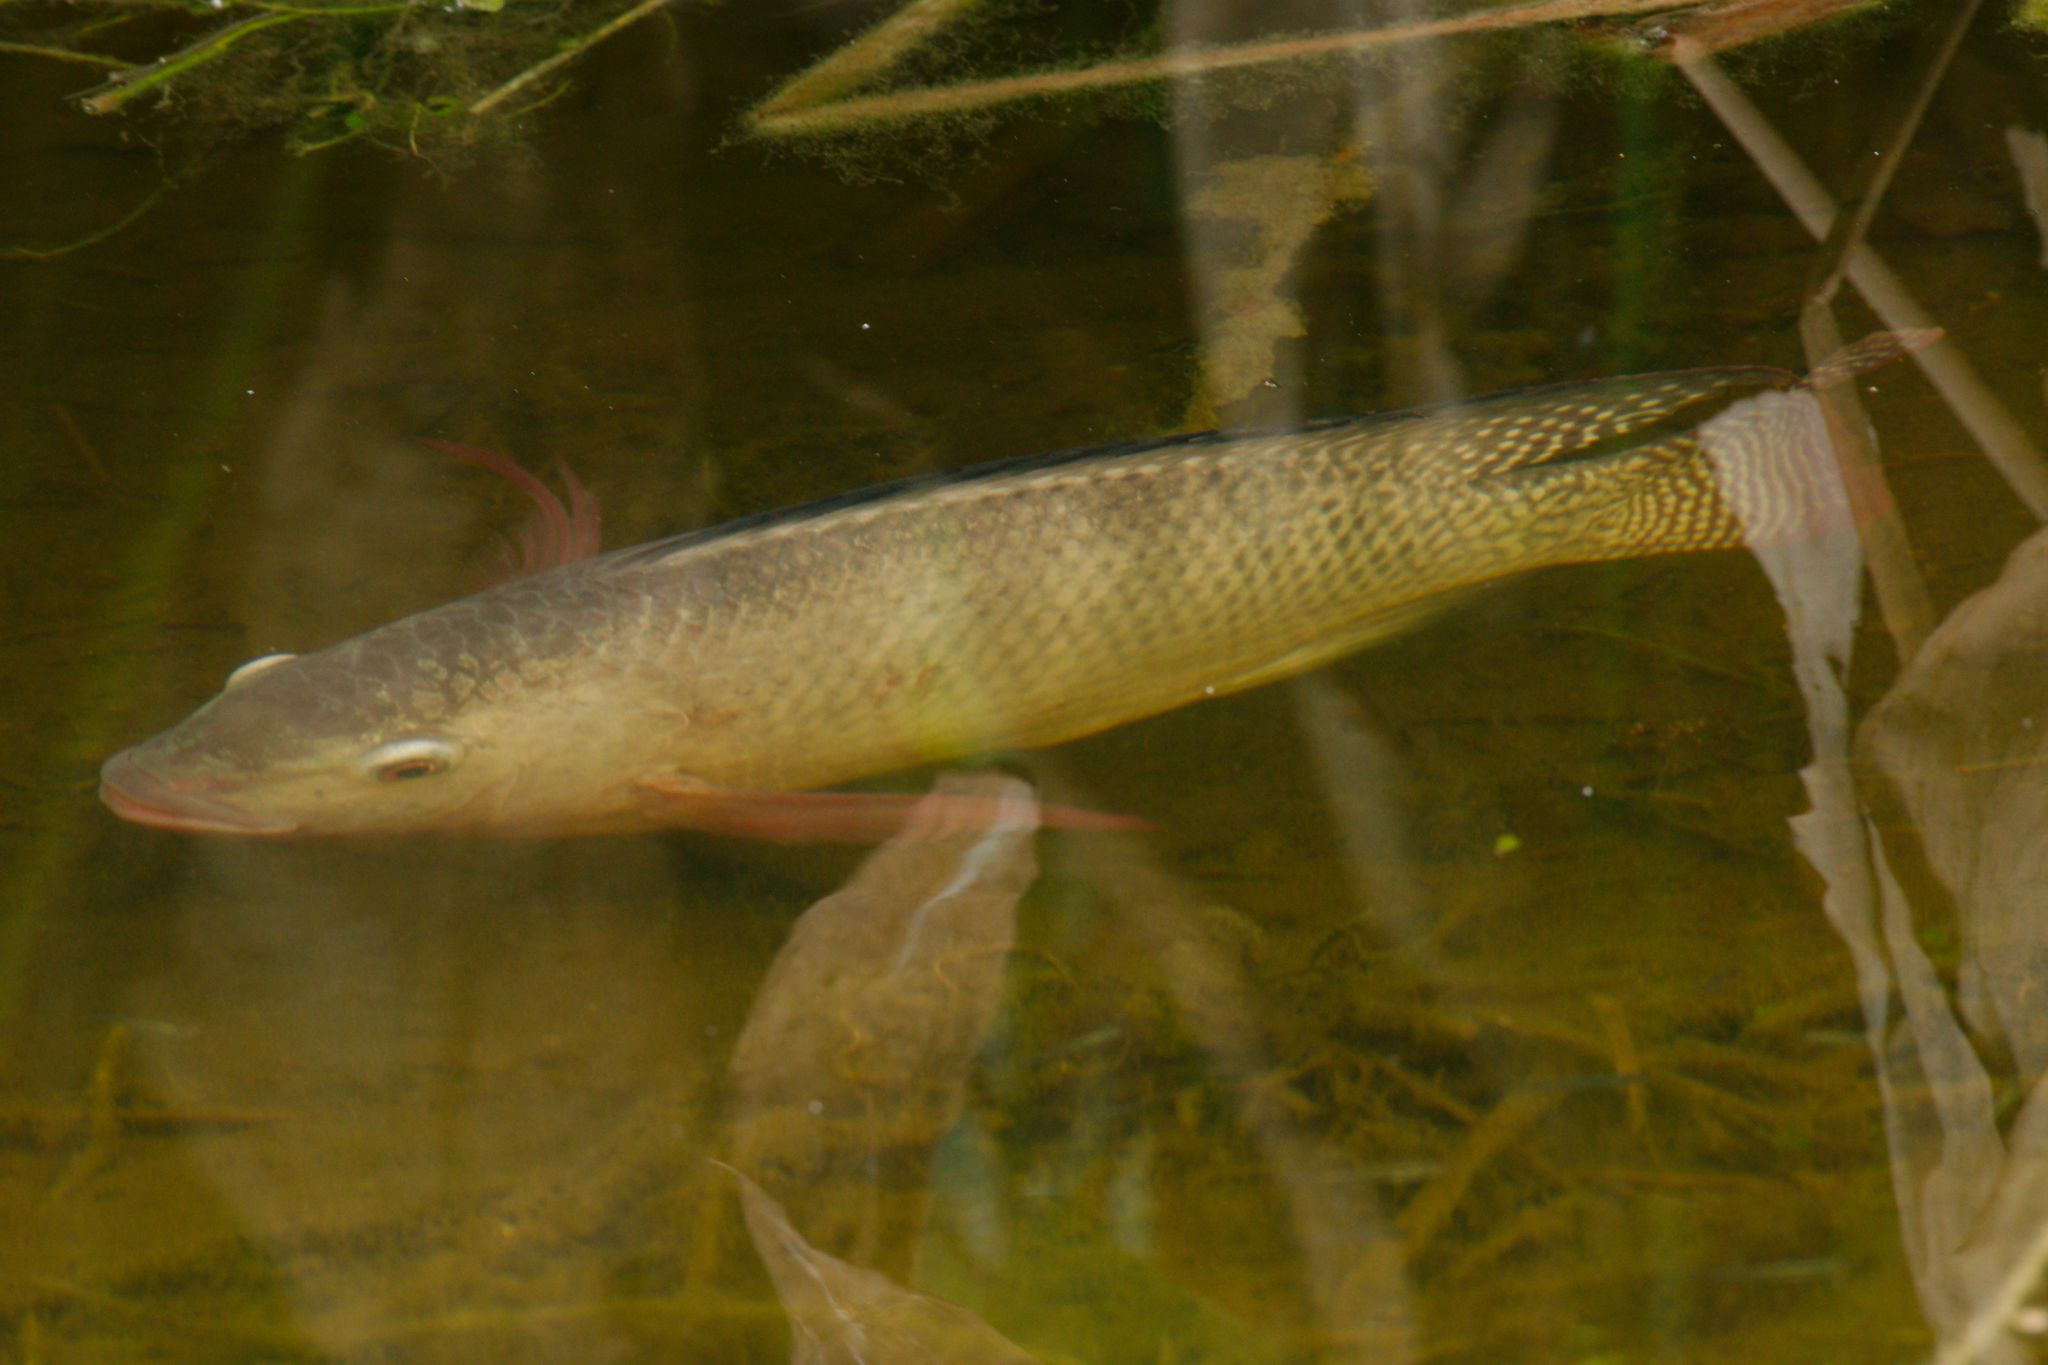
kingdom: Animalia
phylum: Chordata
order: Perciformes
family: Cichlidae
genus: Oreochromis
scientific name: Oreochromis niloticus
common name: Nile tilapia
